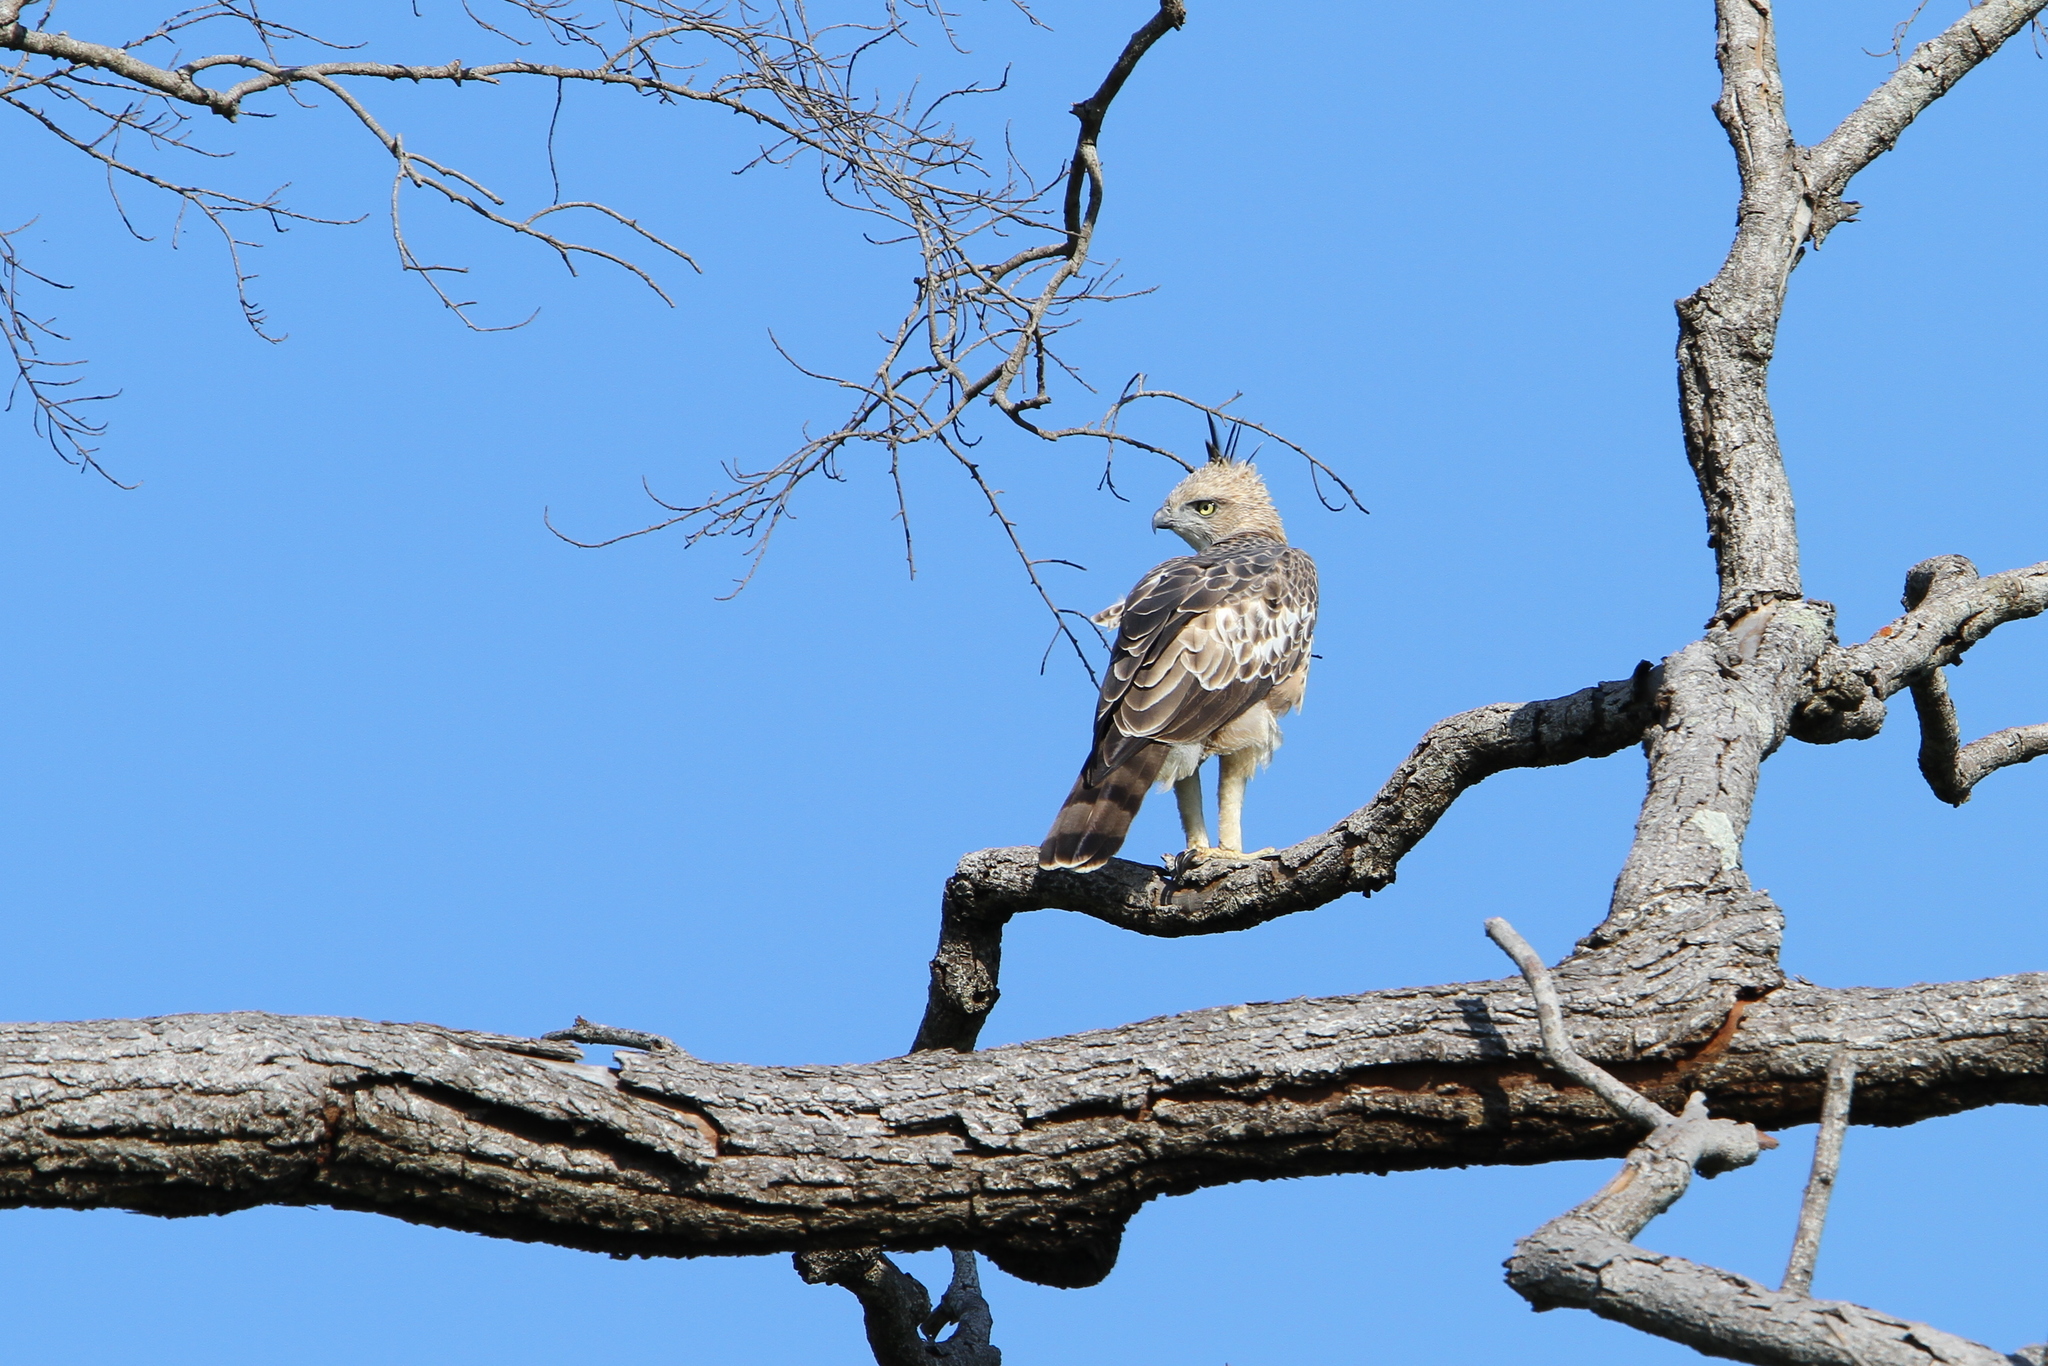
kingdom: Animalia
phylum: Chordata
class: Aves
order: Accipitriformes
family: Accipitridae
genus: Nisaetus
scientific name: Nisaetus cirrhatus
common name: Changeable hawk-eagle
